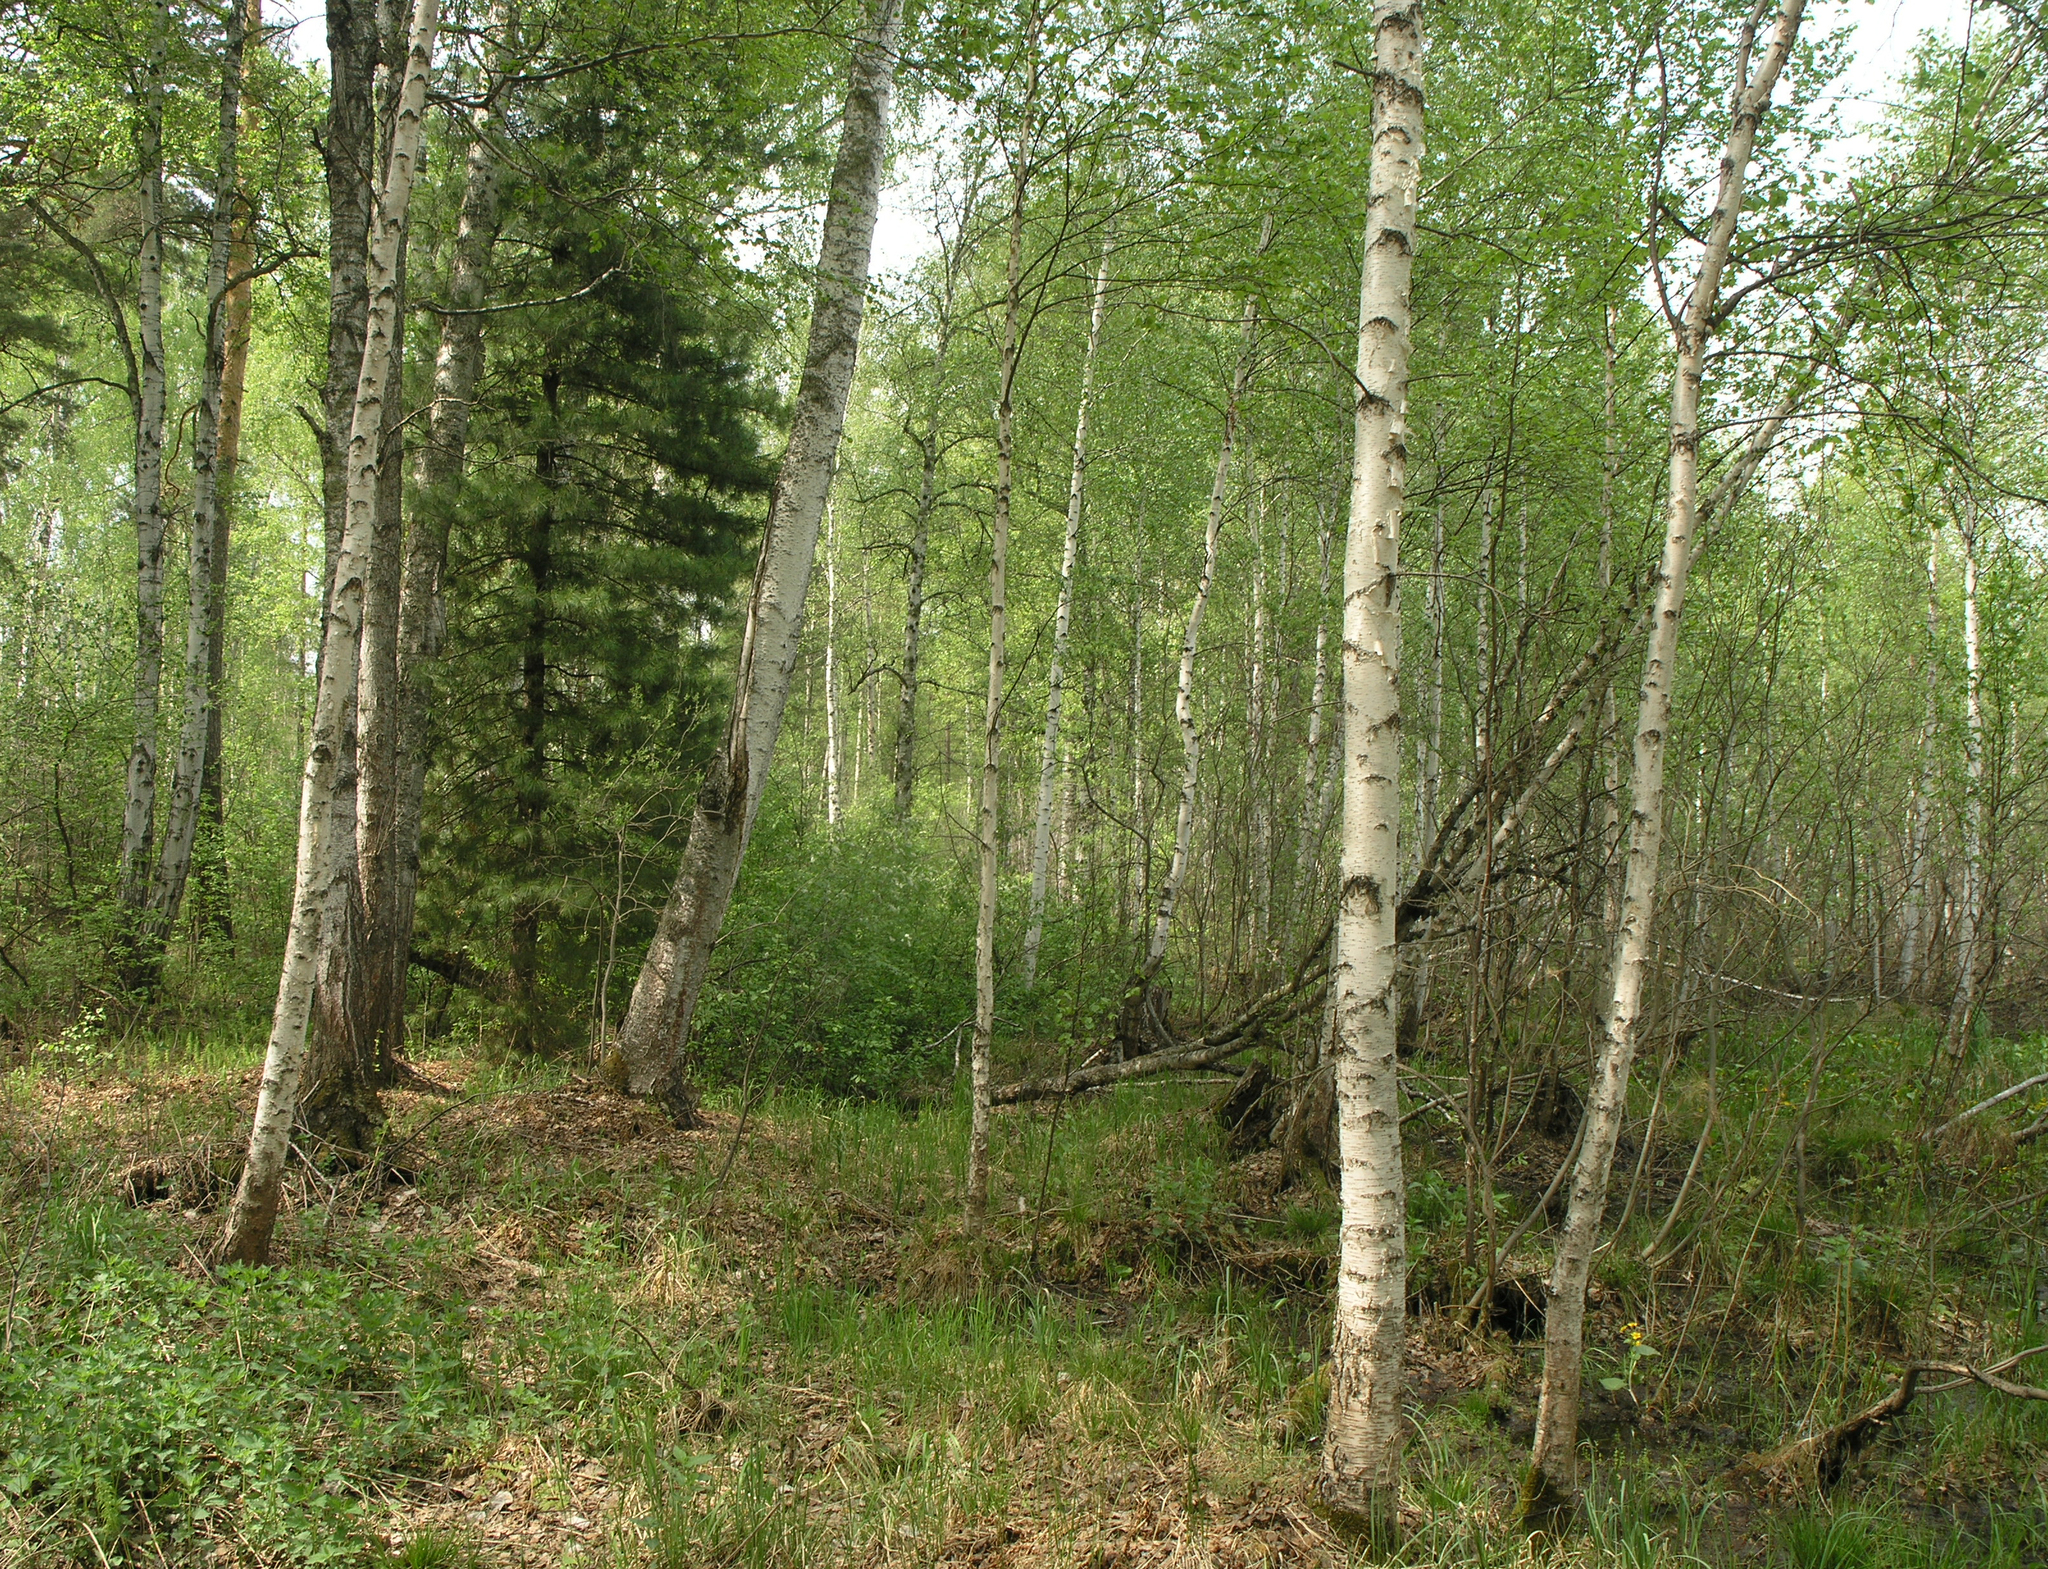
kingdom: Plantae
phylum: Tracheophyta
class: Pinopsida
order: Pinales
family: Pinaceae
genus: Pinus
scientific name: Pinus sibirica
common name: Siberian pine
